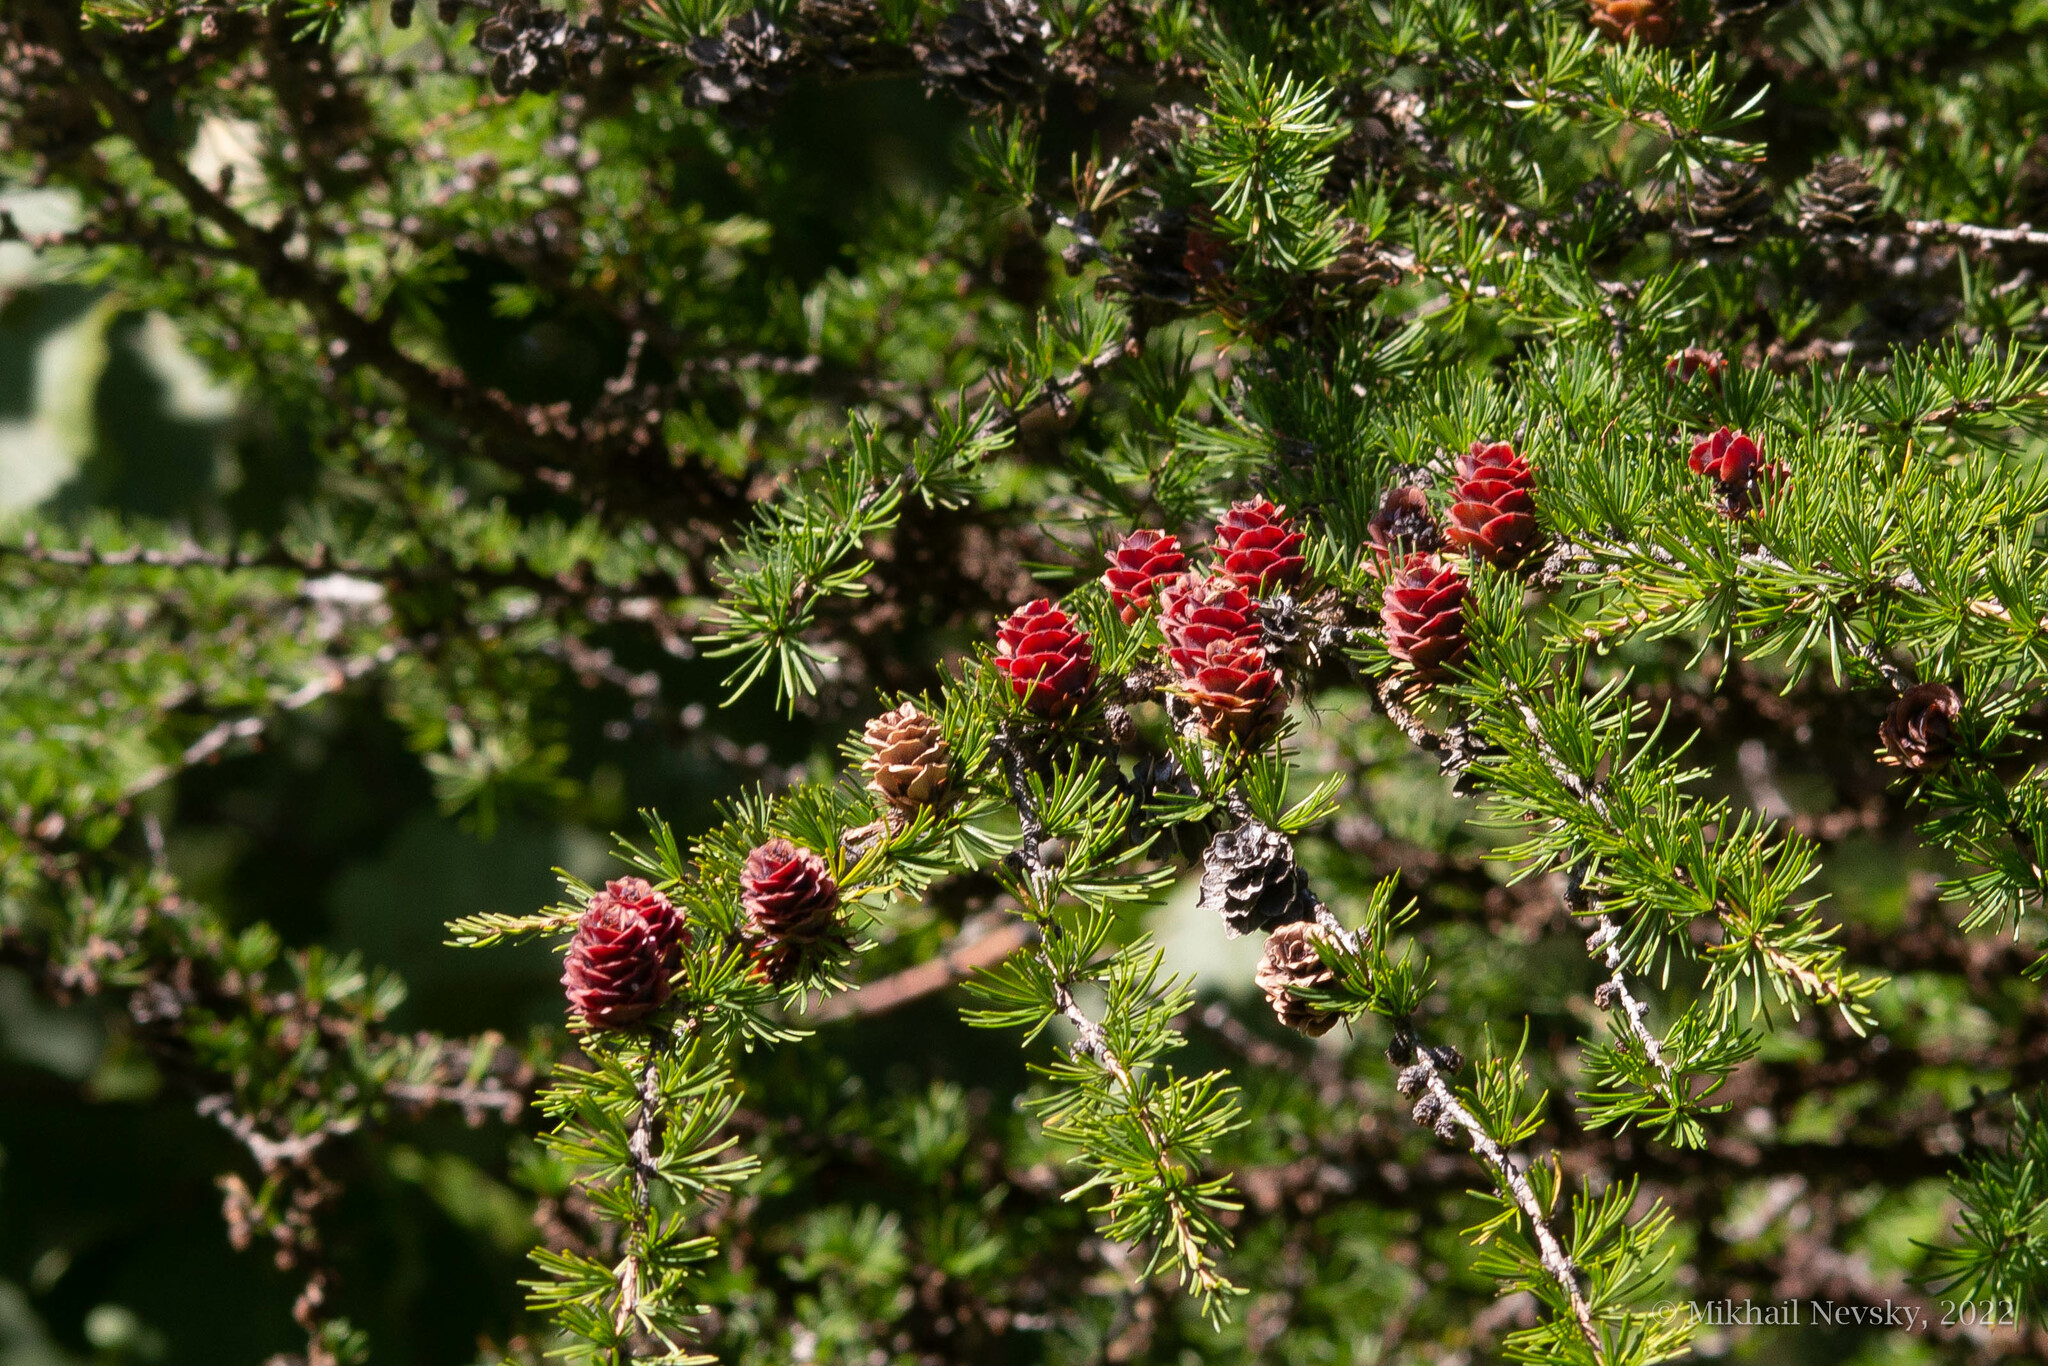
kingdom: Plantae
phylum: Tracheophyta
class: Pinopsida
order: Pinales
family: Pinaceae
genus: Larix
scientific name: Larix gmelinii
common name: Dahurian larch
